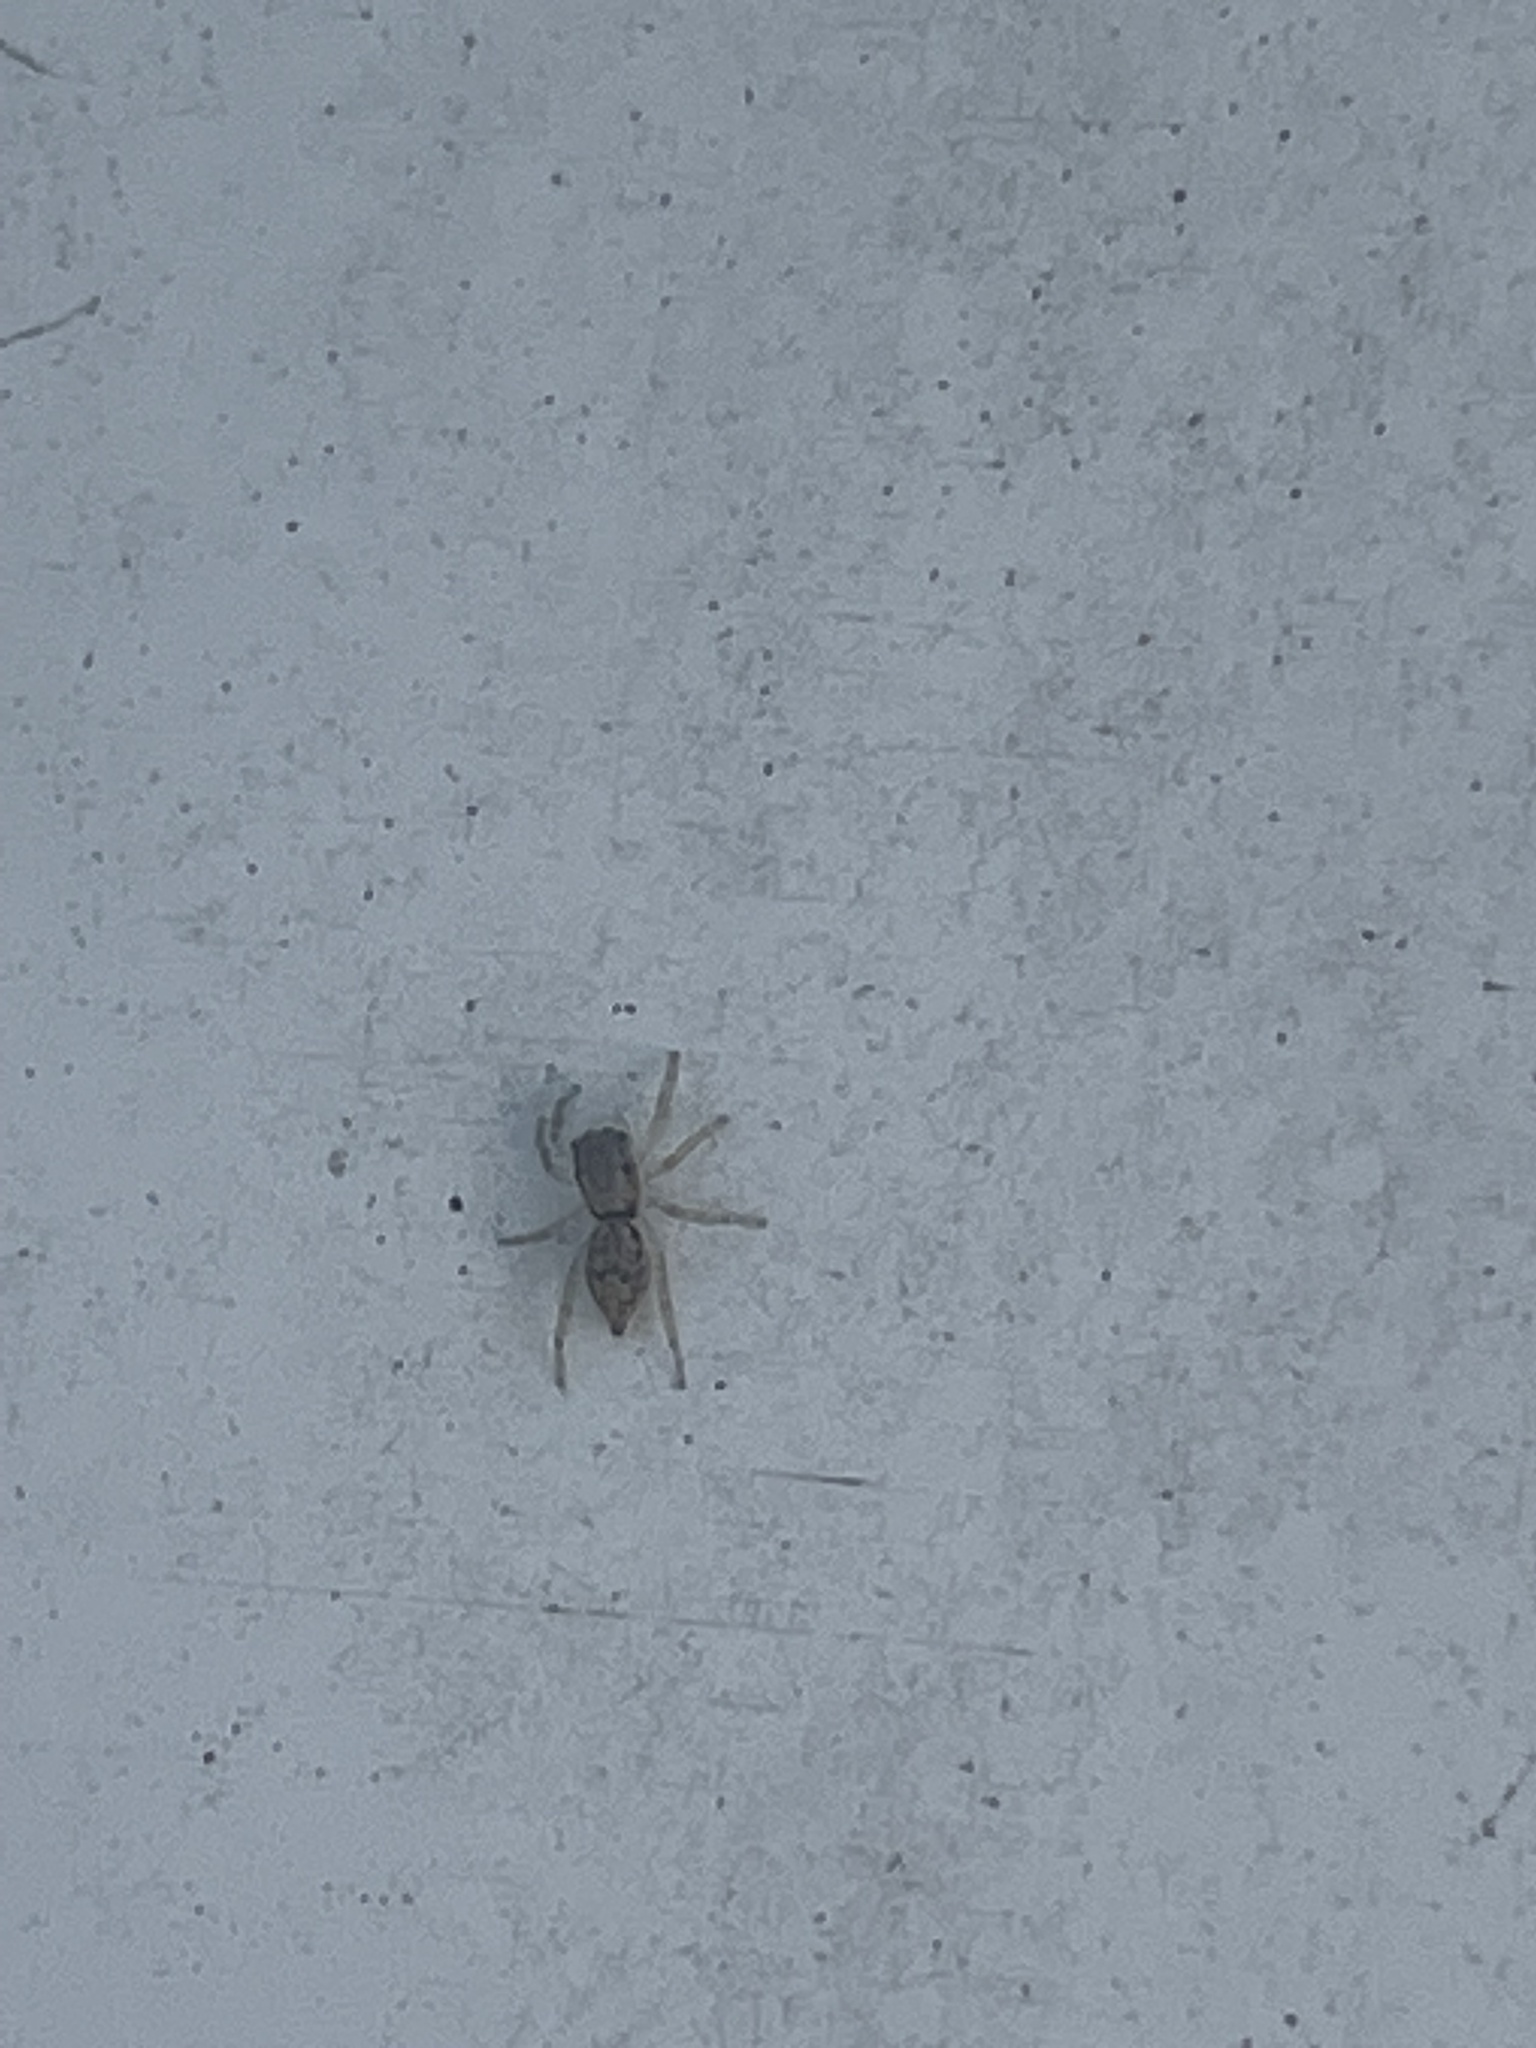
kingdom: Animalia
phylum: Arthropoda
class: Arachnida
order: Araneae
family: Salticidae
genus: Menemerus
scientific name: Menemerus bivittatus
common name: Gray wall jumper
